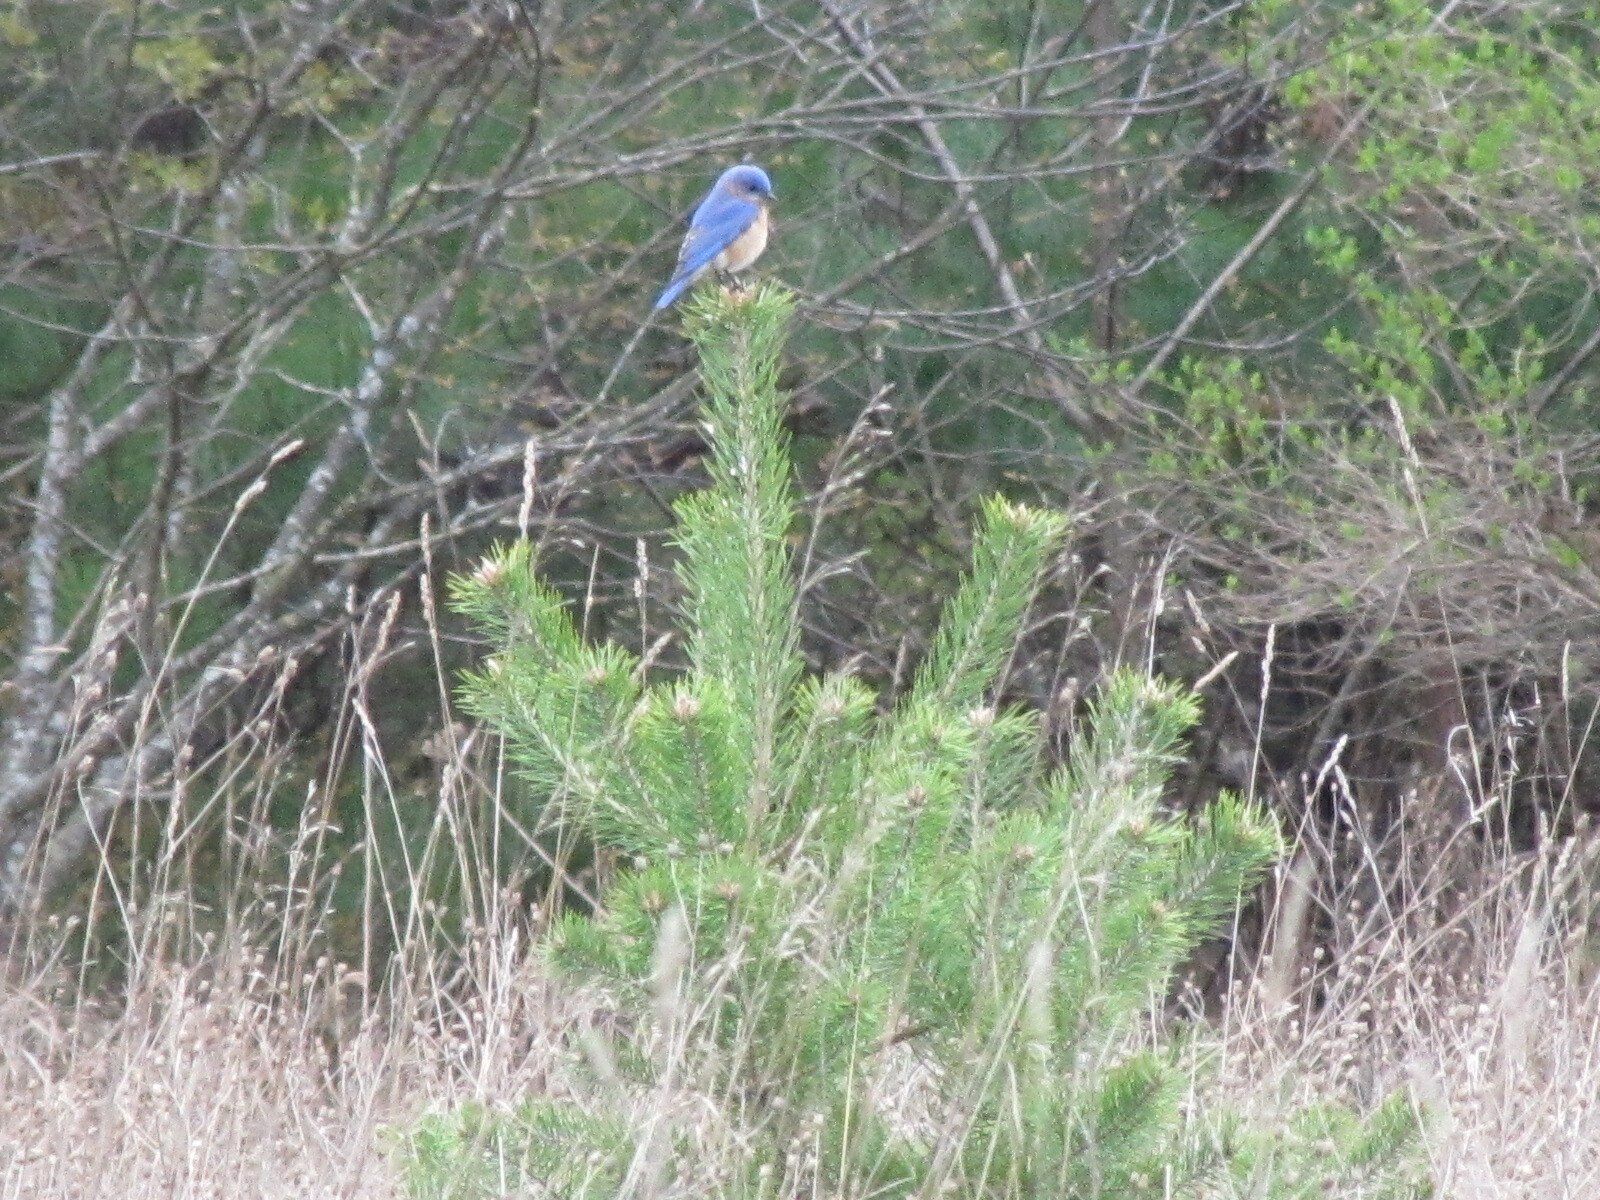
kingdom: Animalia
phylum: Chordata
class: Aves
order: Passeriformes
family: Turdidae
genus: Sialia
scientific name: Sialia sialis
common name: Eastern bluebird
